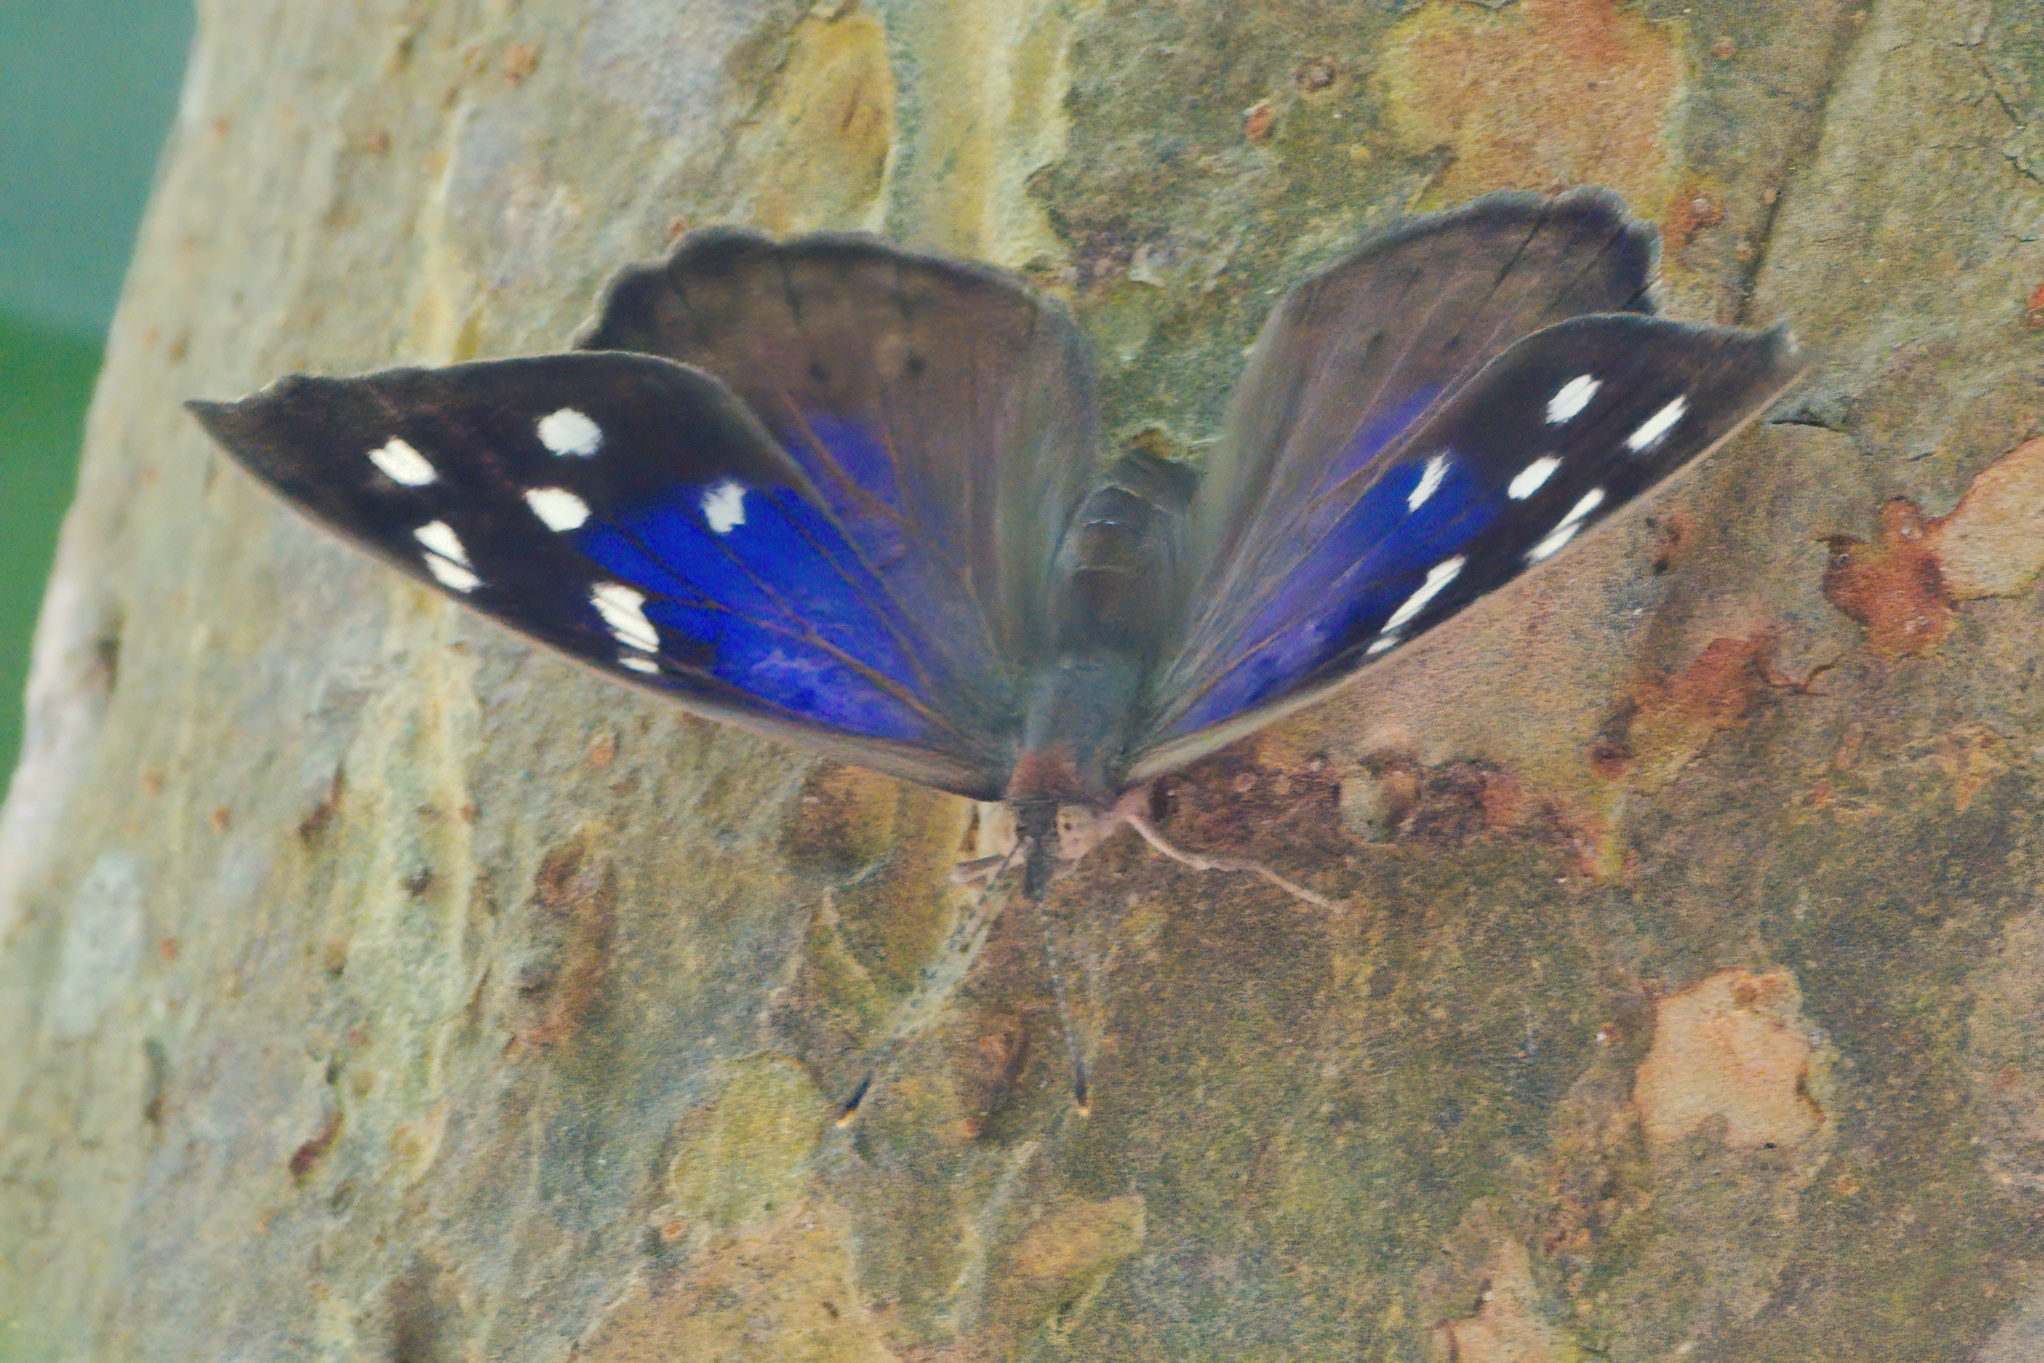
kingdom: Animalia
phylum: Arthropoda
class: Insecta
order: Lepidoptera
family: Nymphalidae
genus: Eunica
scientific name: Eunica tatila
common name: Florida purplewing
